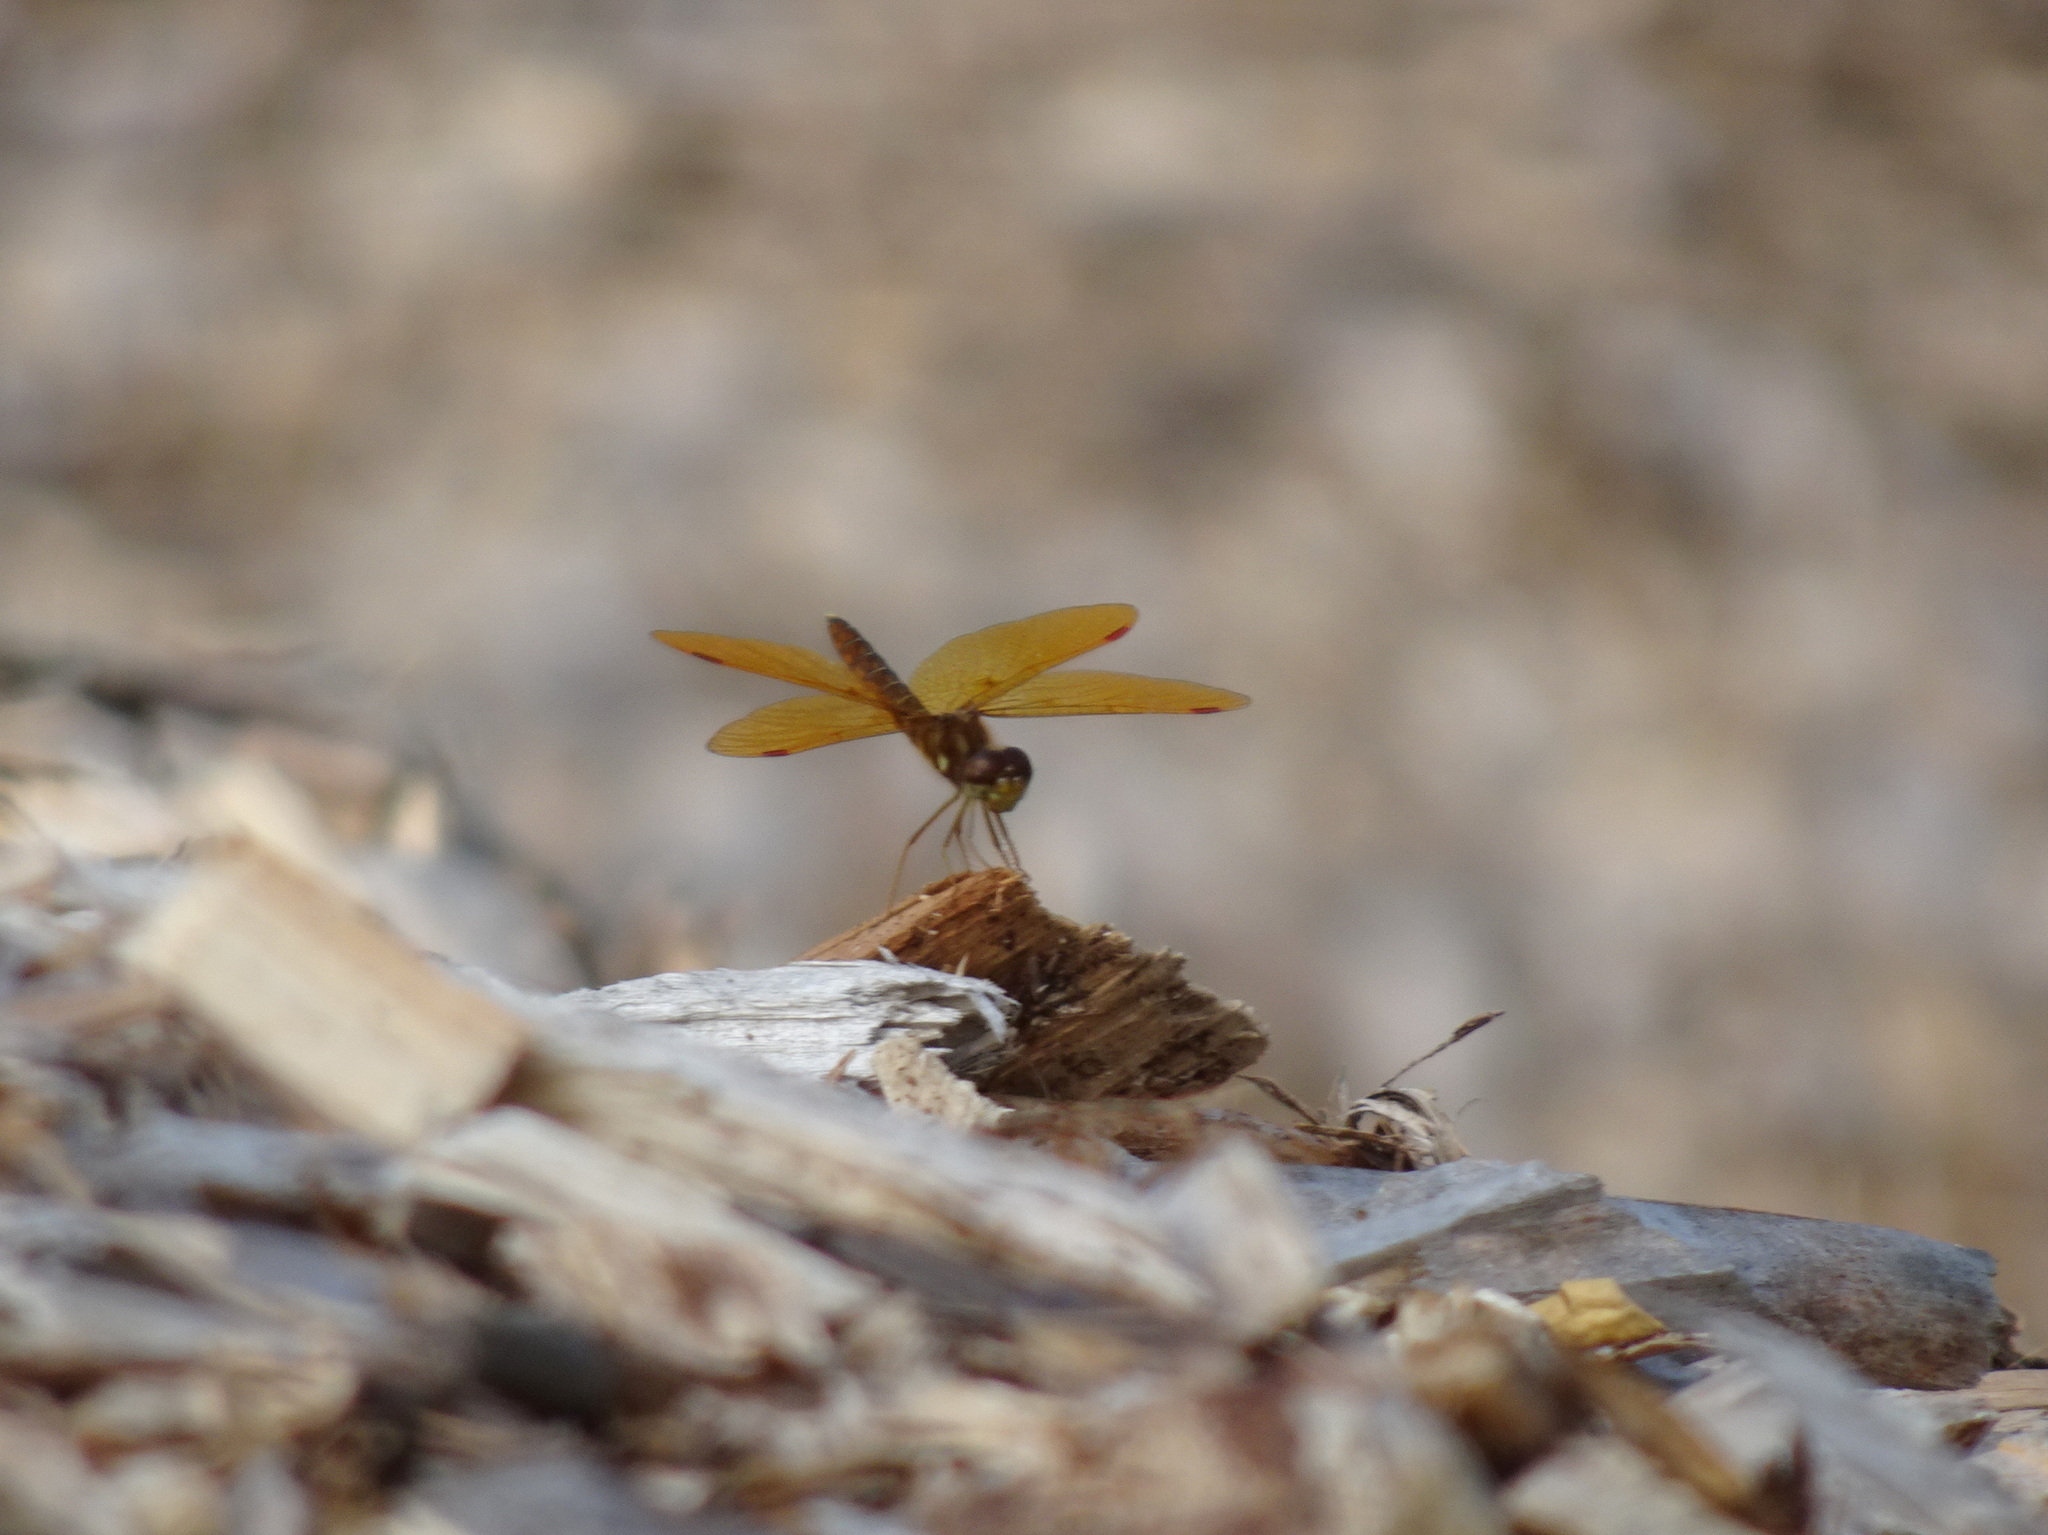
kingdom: Animalia
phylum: Arthropoda
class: Insecta
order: Odonata
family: Libellulidae
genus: Perithemis
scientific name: Perithemis tenera
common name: Eastern amberwing
